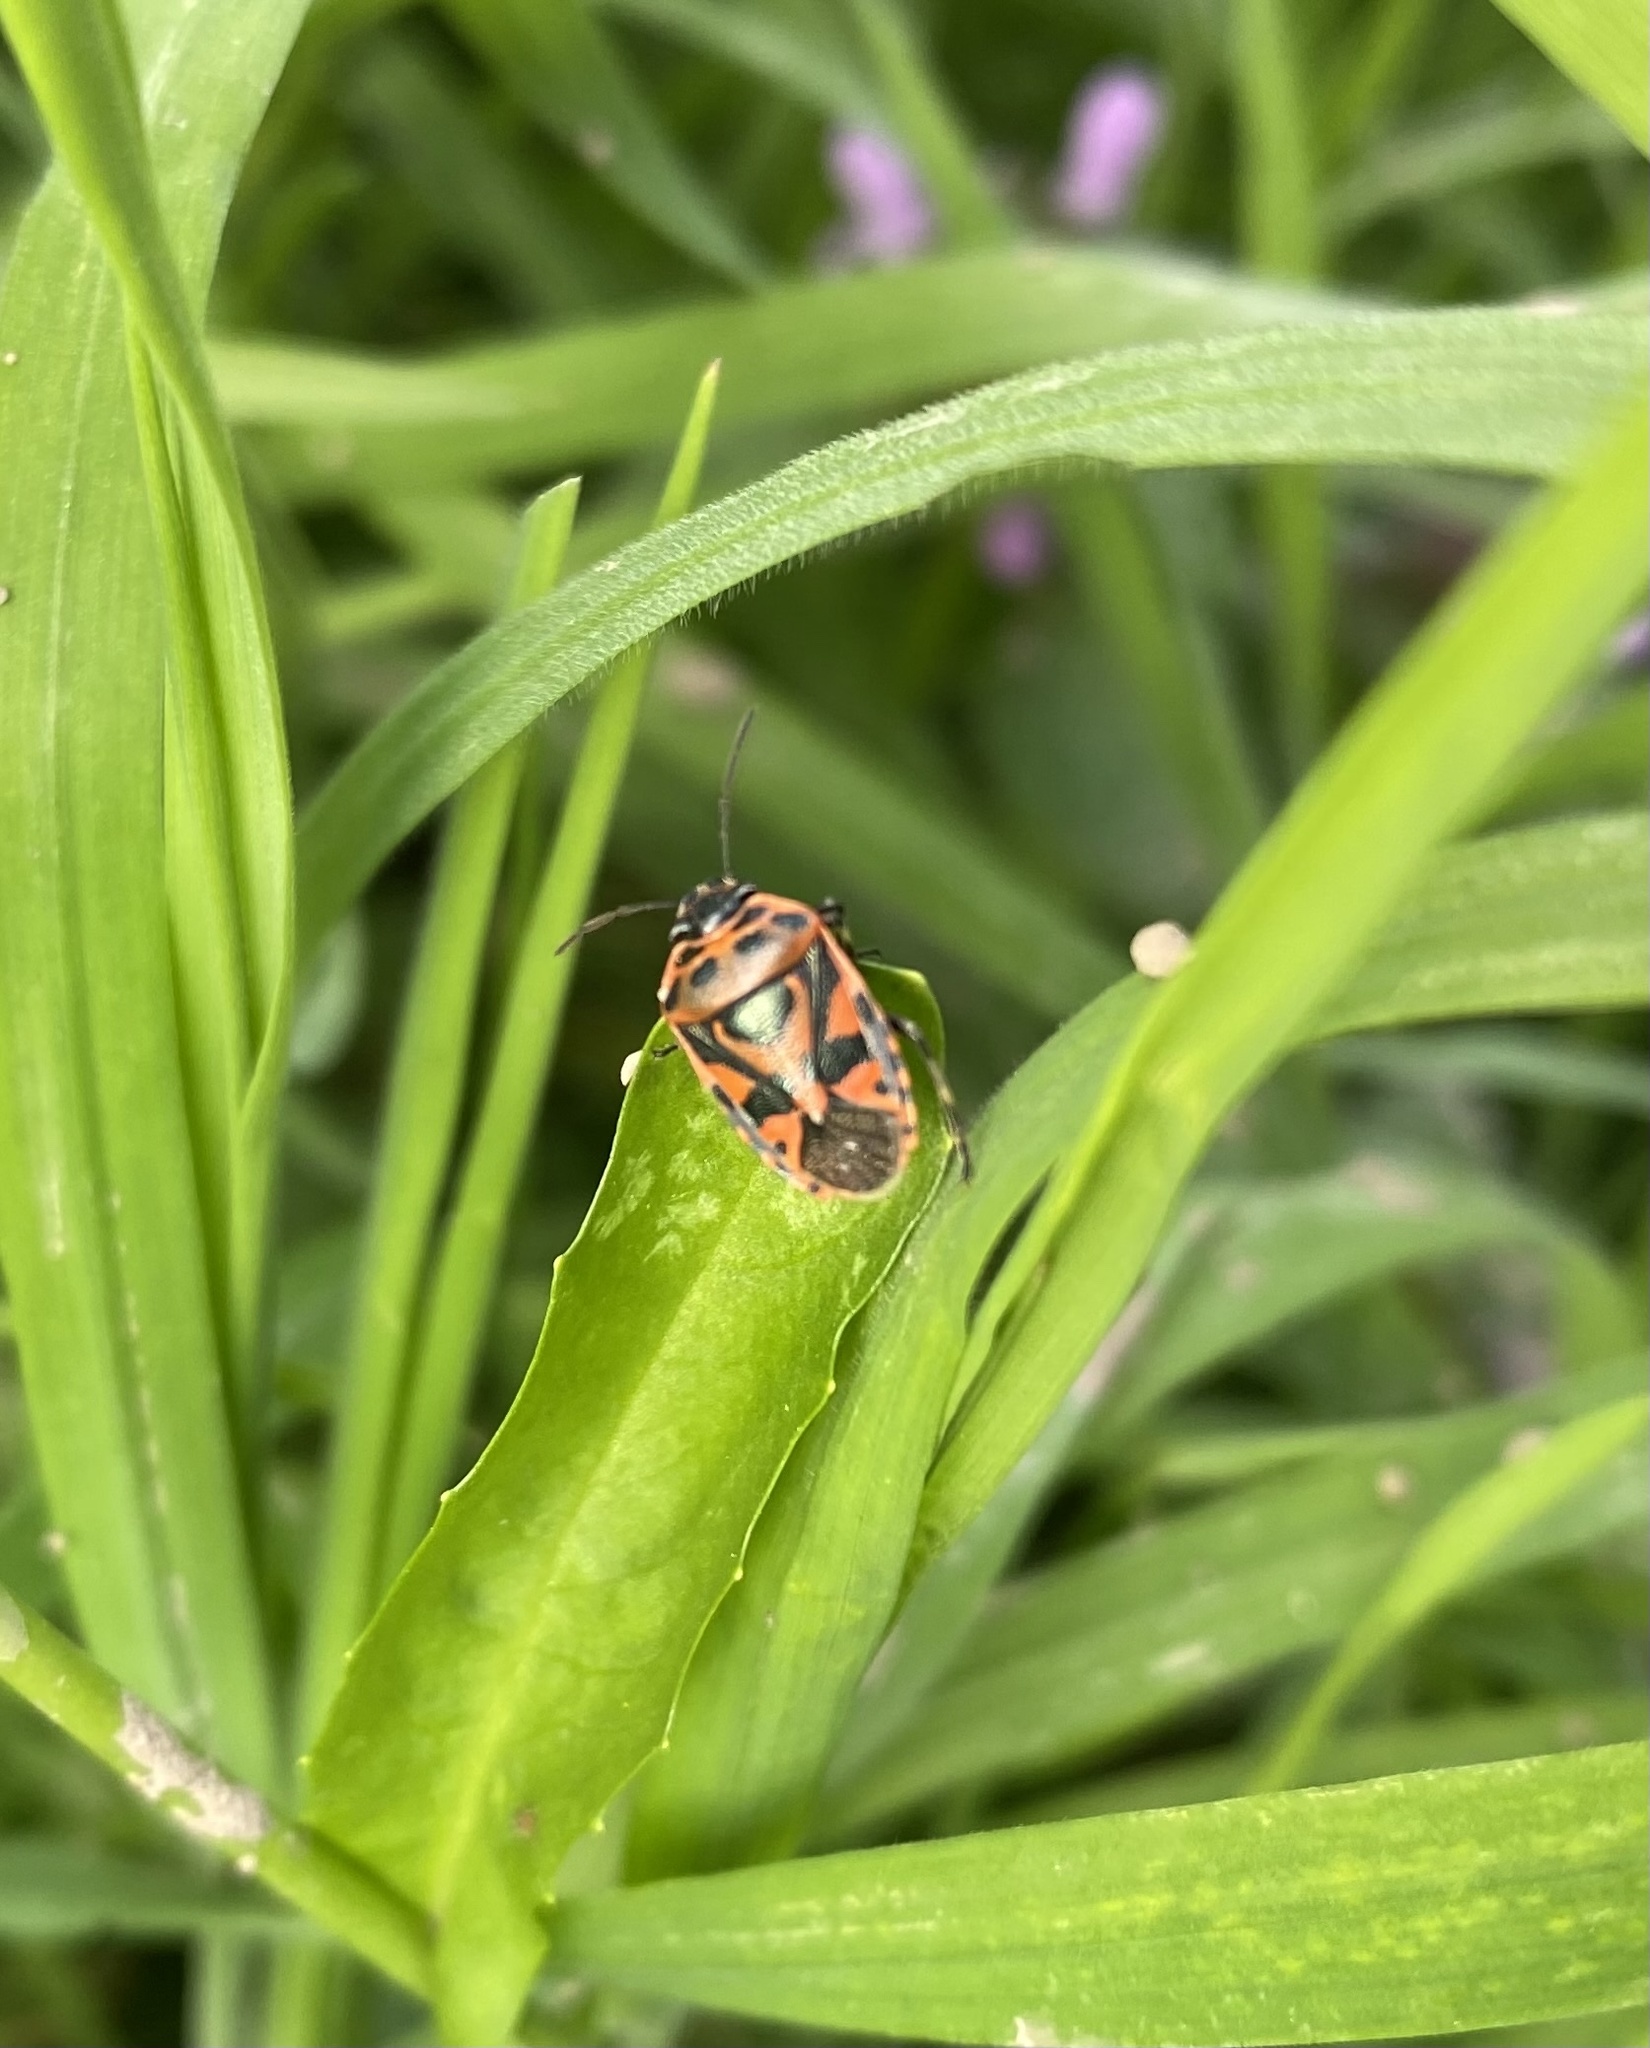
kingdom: Animalia
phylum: Arthropoda
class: Insecta
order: Hemiptera
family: Pentatomidae
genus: Eurydema
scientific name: Eurydema ornata
